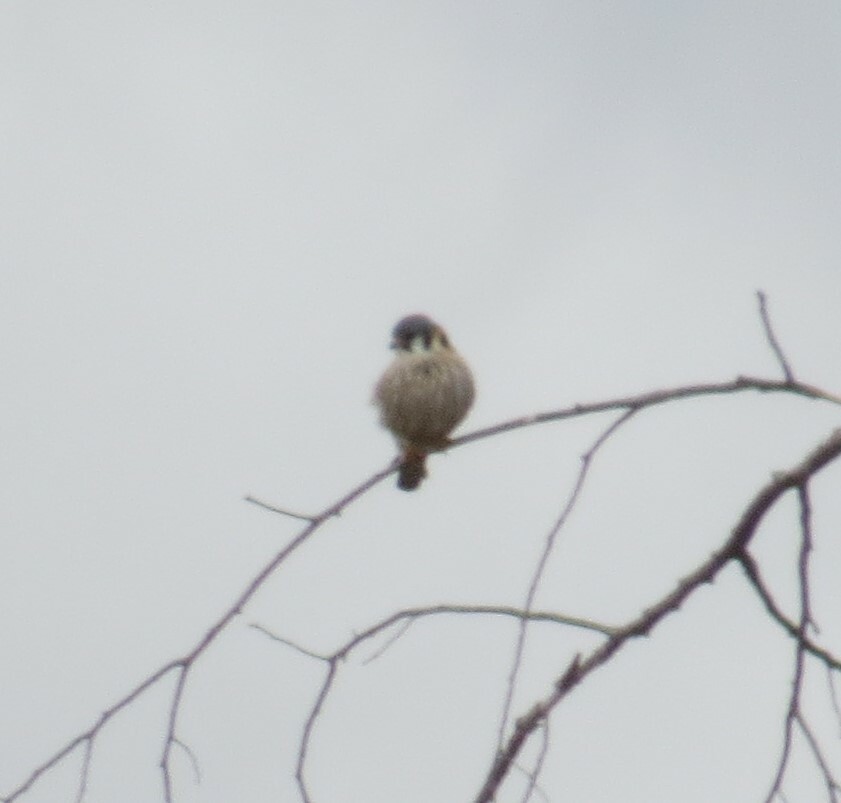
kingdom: Animalia
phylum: Chordata
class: Aves
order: Falconiformes
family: Falconidae
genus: Falco
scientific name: Falco sparverius
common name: American kestrel
